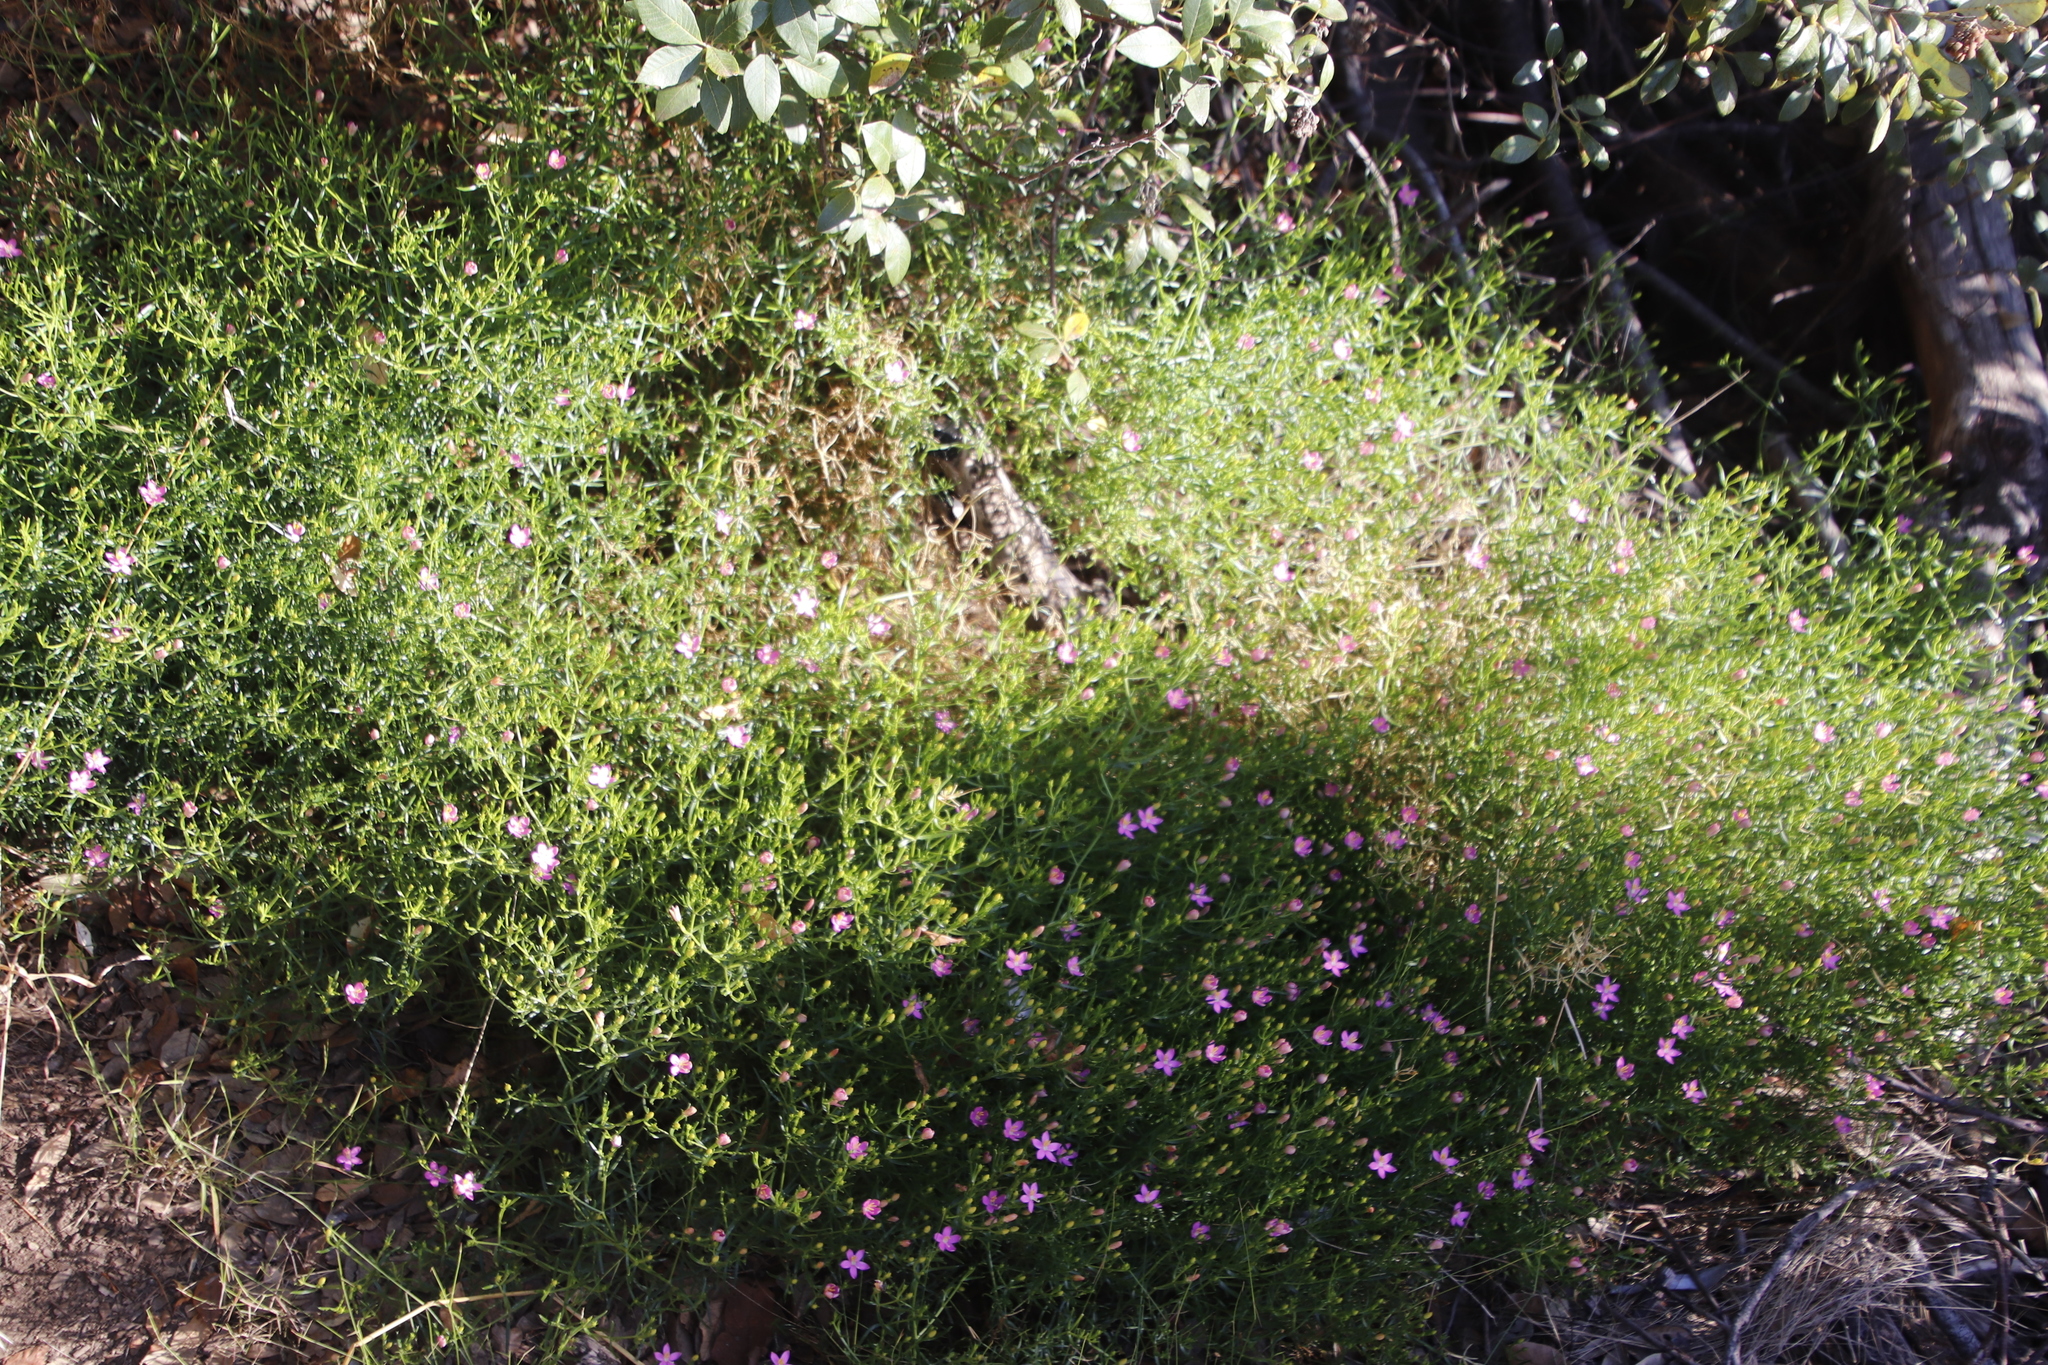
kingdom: Plantae
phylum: Tracheophyta
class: Magnoliopsida
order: Gentianales
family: Gentianaceae
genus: Chironia
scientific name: Chironia baccifera
